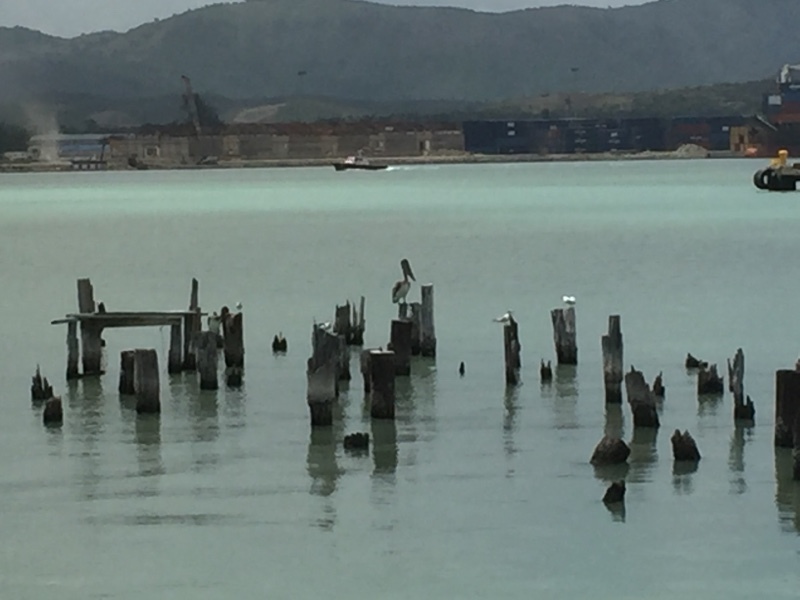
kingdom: Animalia
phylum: Chordata
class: Aves
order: Pelecaniformes
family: Pelecanidae
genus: Pelecanus
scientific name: Pelecanus occidentalis
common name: Brown pelican
